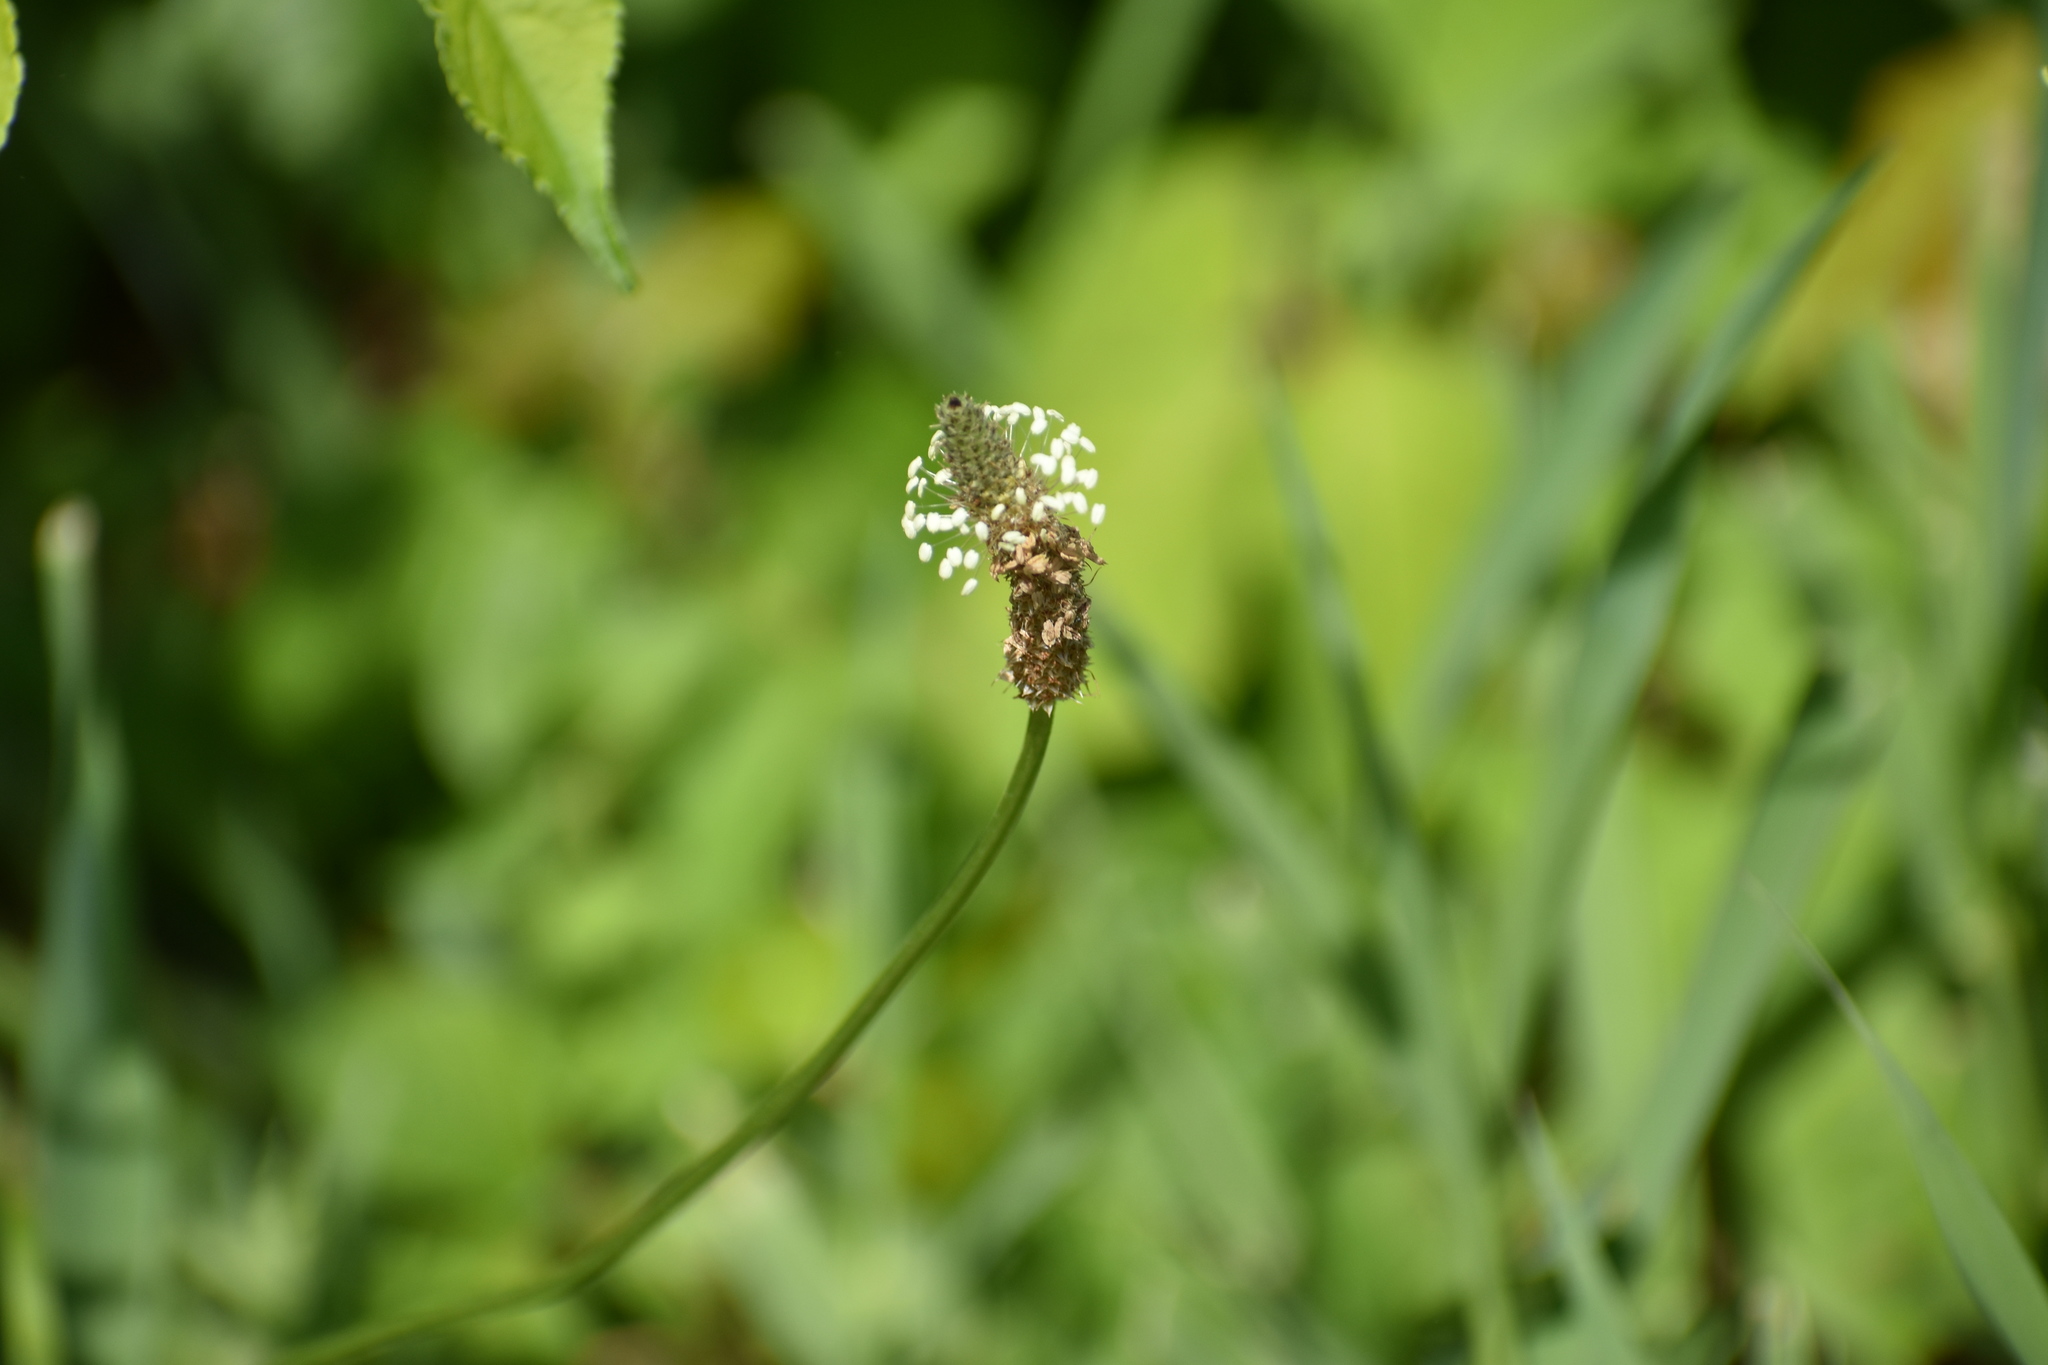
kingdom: Plantae
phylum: Tracheophyta
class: Magnoliopsida
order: Lamiales
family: Plantaginaceae
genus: Plantago
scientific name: Plantago lanceolata
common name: Ribwort plantain
